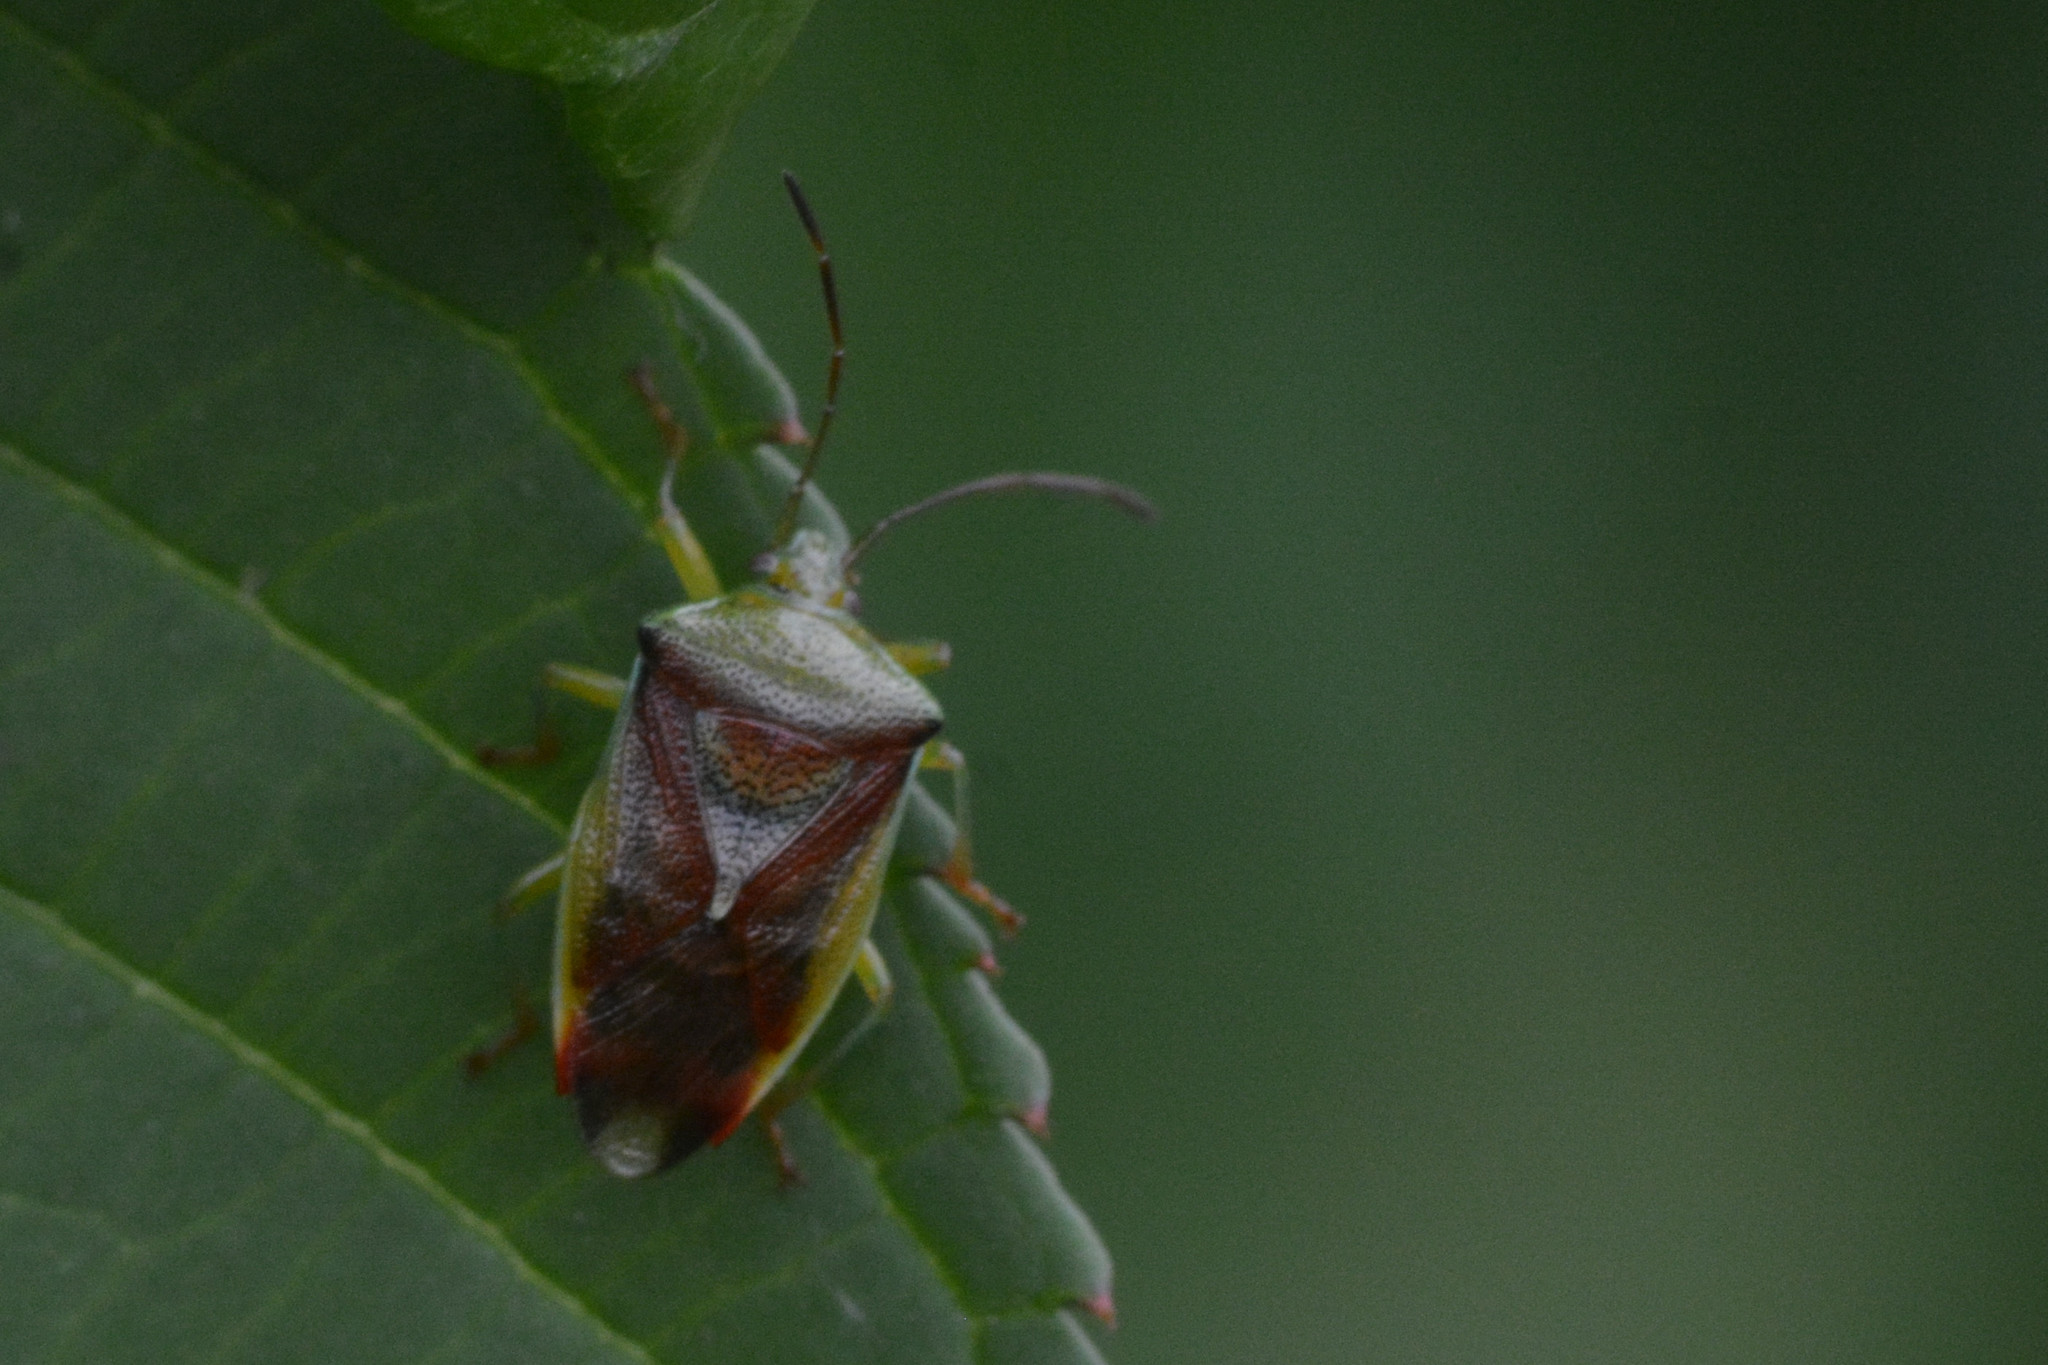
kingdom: Animalia
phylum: Arthropoda
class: Insecta
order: Hemiptera
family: Acanthosomatidae
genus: Elasmostethus
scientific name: Elasmostethus interstinctus
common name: Birch shieldbug
